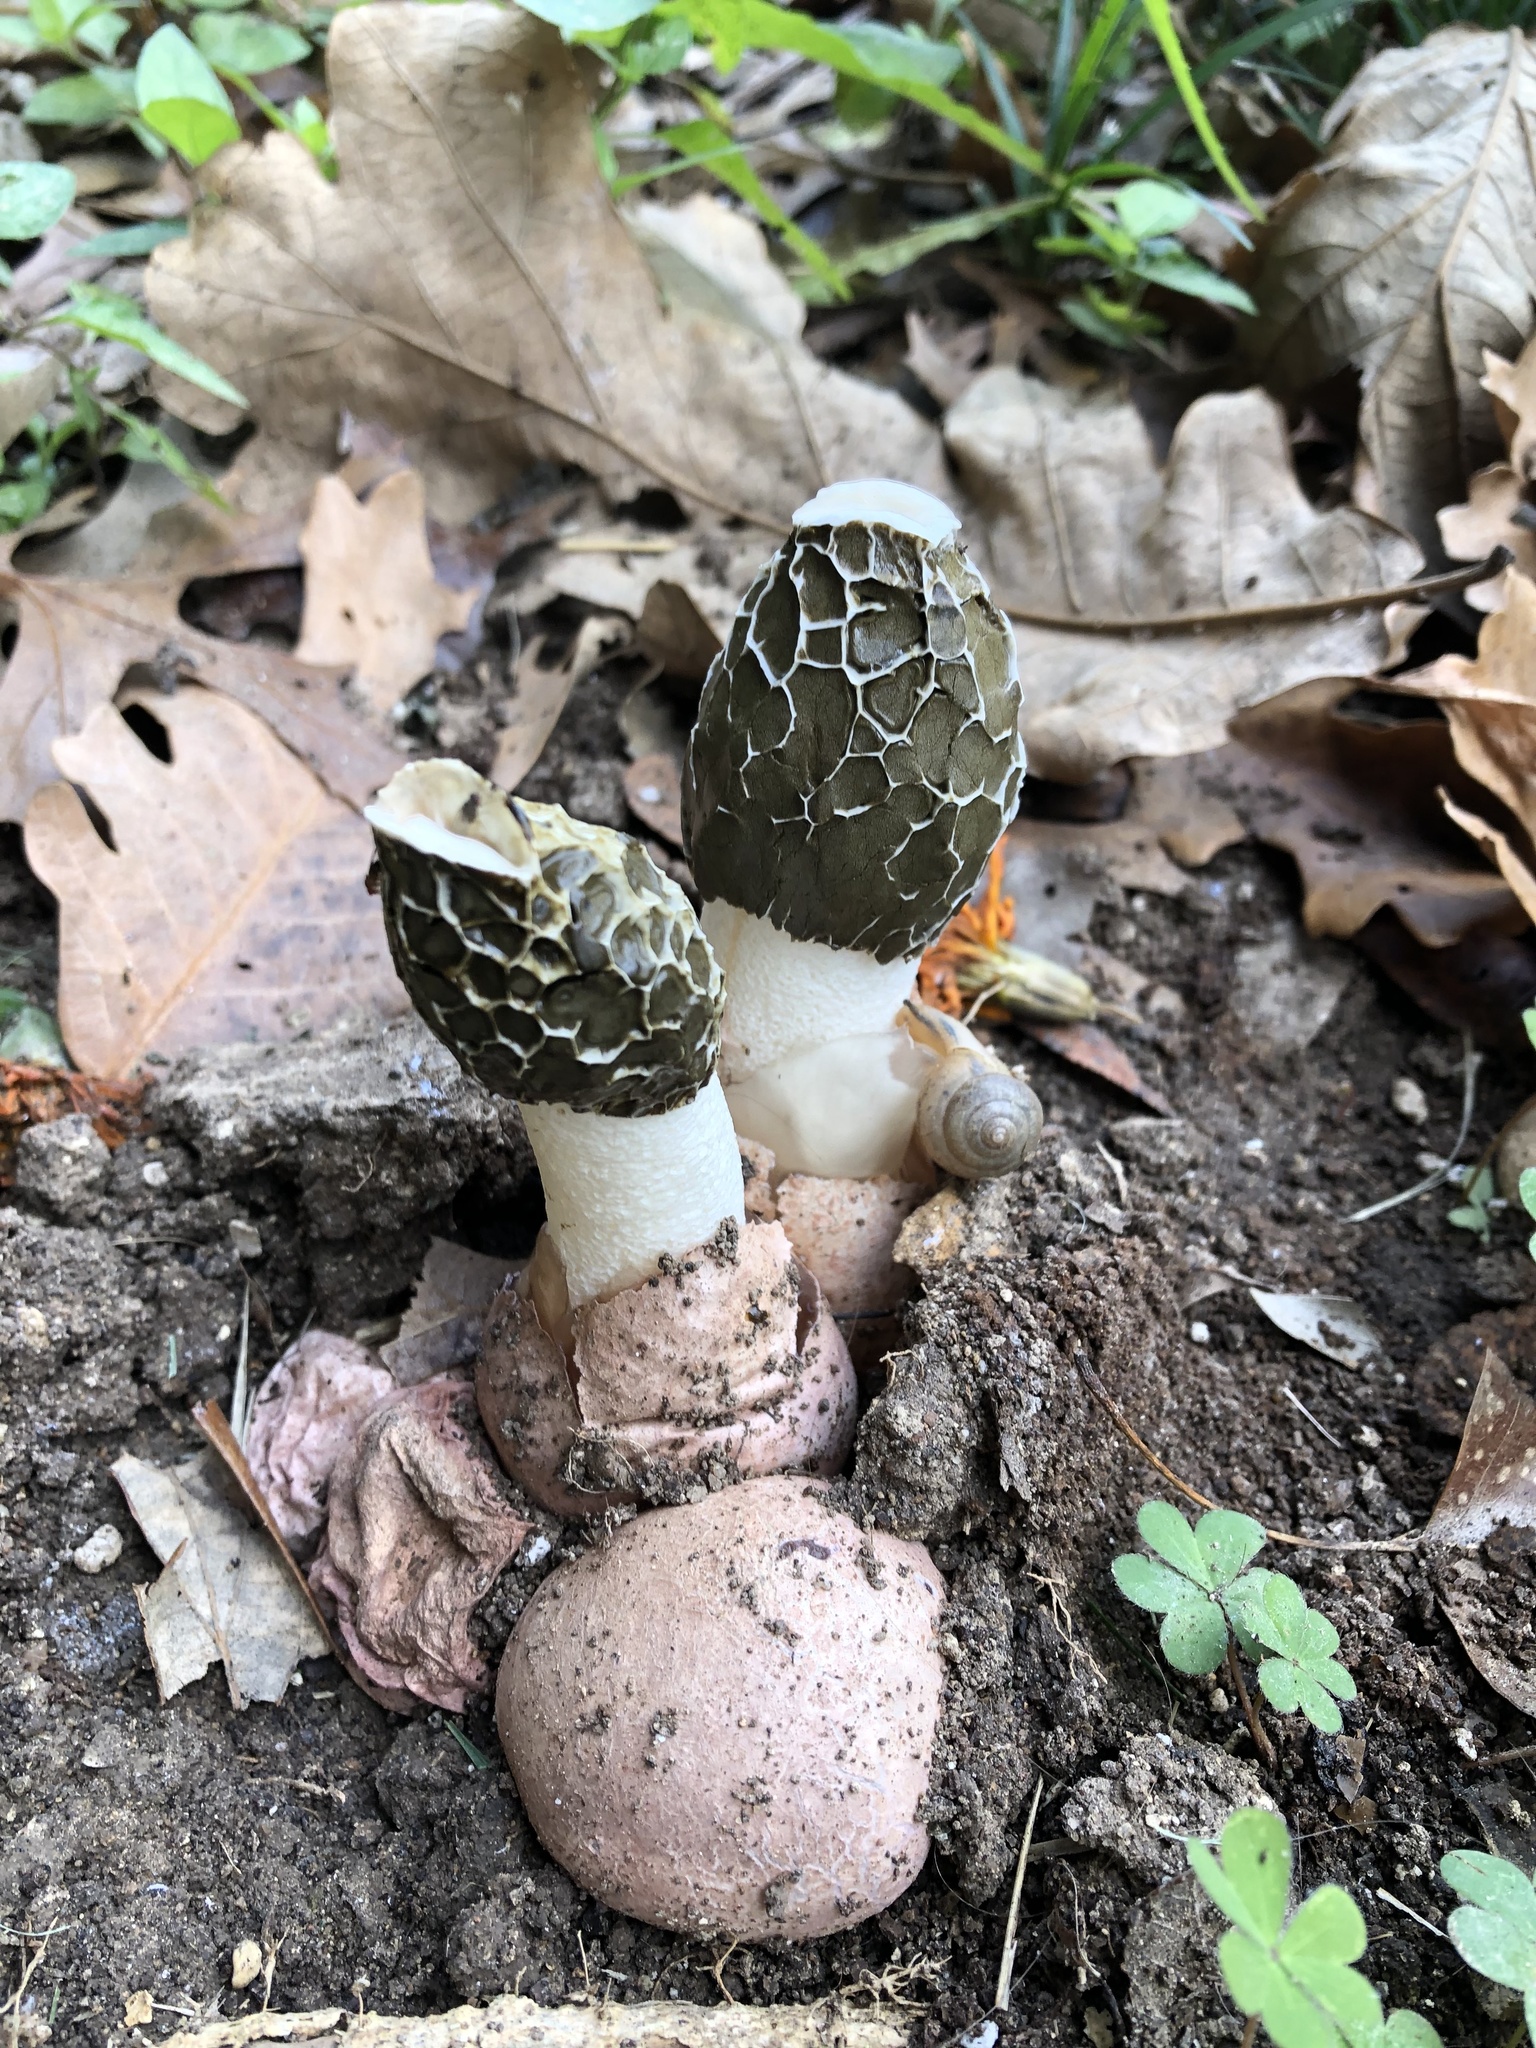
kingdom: Fungi
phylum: Basidiomycota
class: Agaricomycetes
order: Phallales
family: Phallaceae
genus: Phallus
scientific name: Phallus hadriani
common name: Sand stinkhorn
